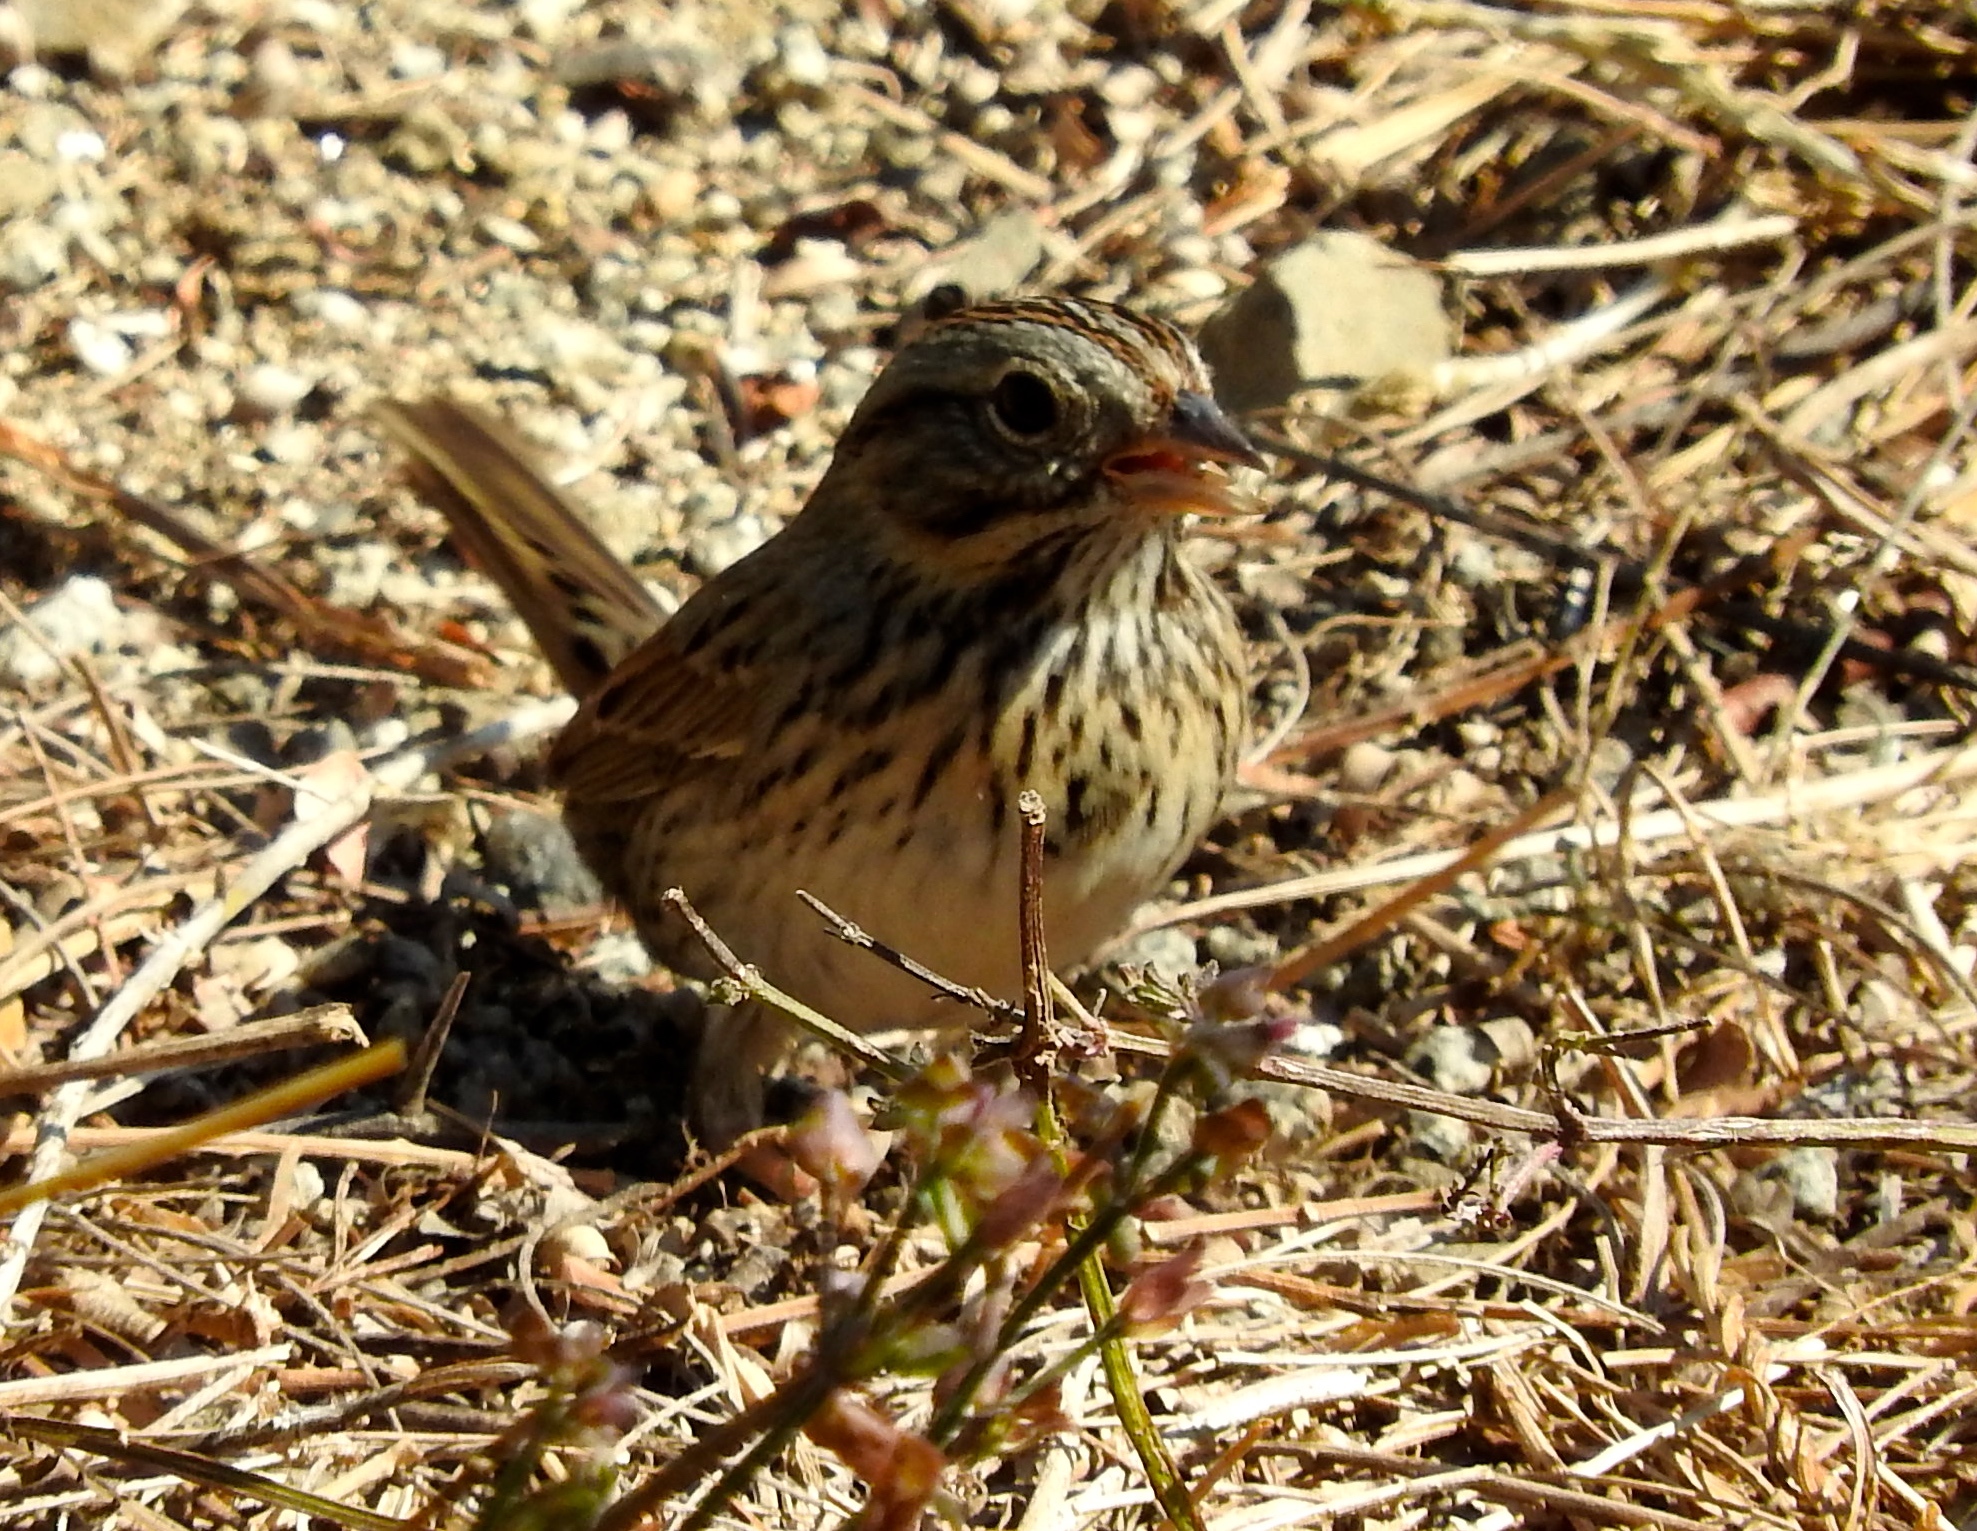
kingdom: Animalia
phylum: Chordata
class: Aves
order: Passeriformes
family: Passerellidae
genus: Melospiza
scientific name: Melospiza lincolnii
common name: Lincoln's sparrow
